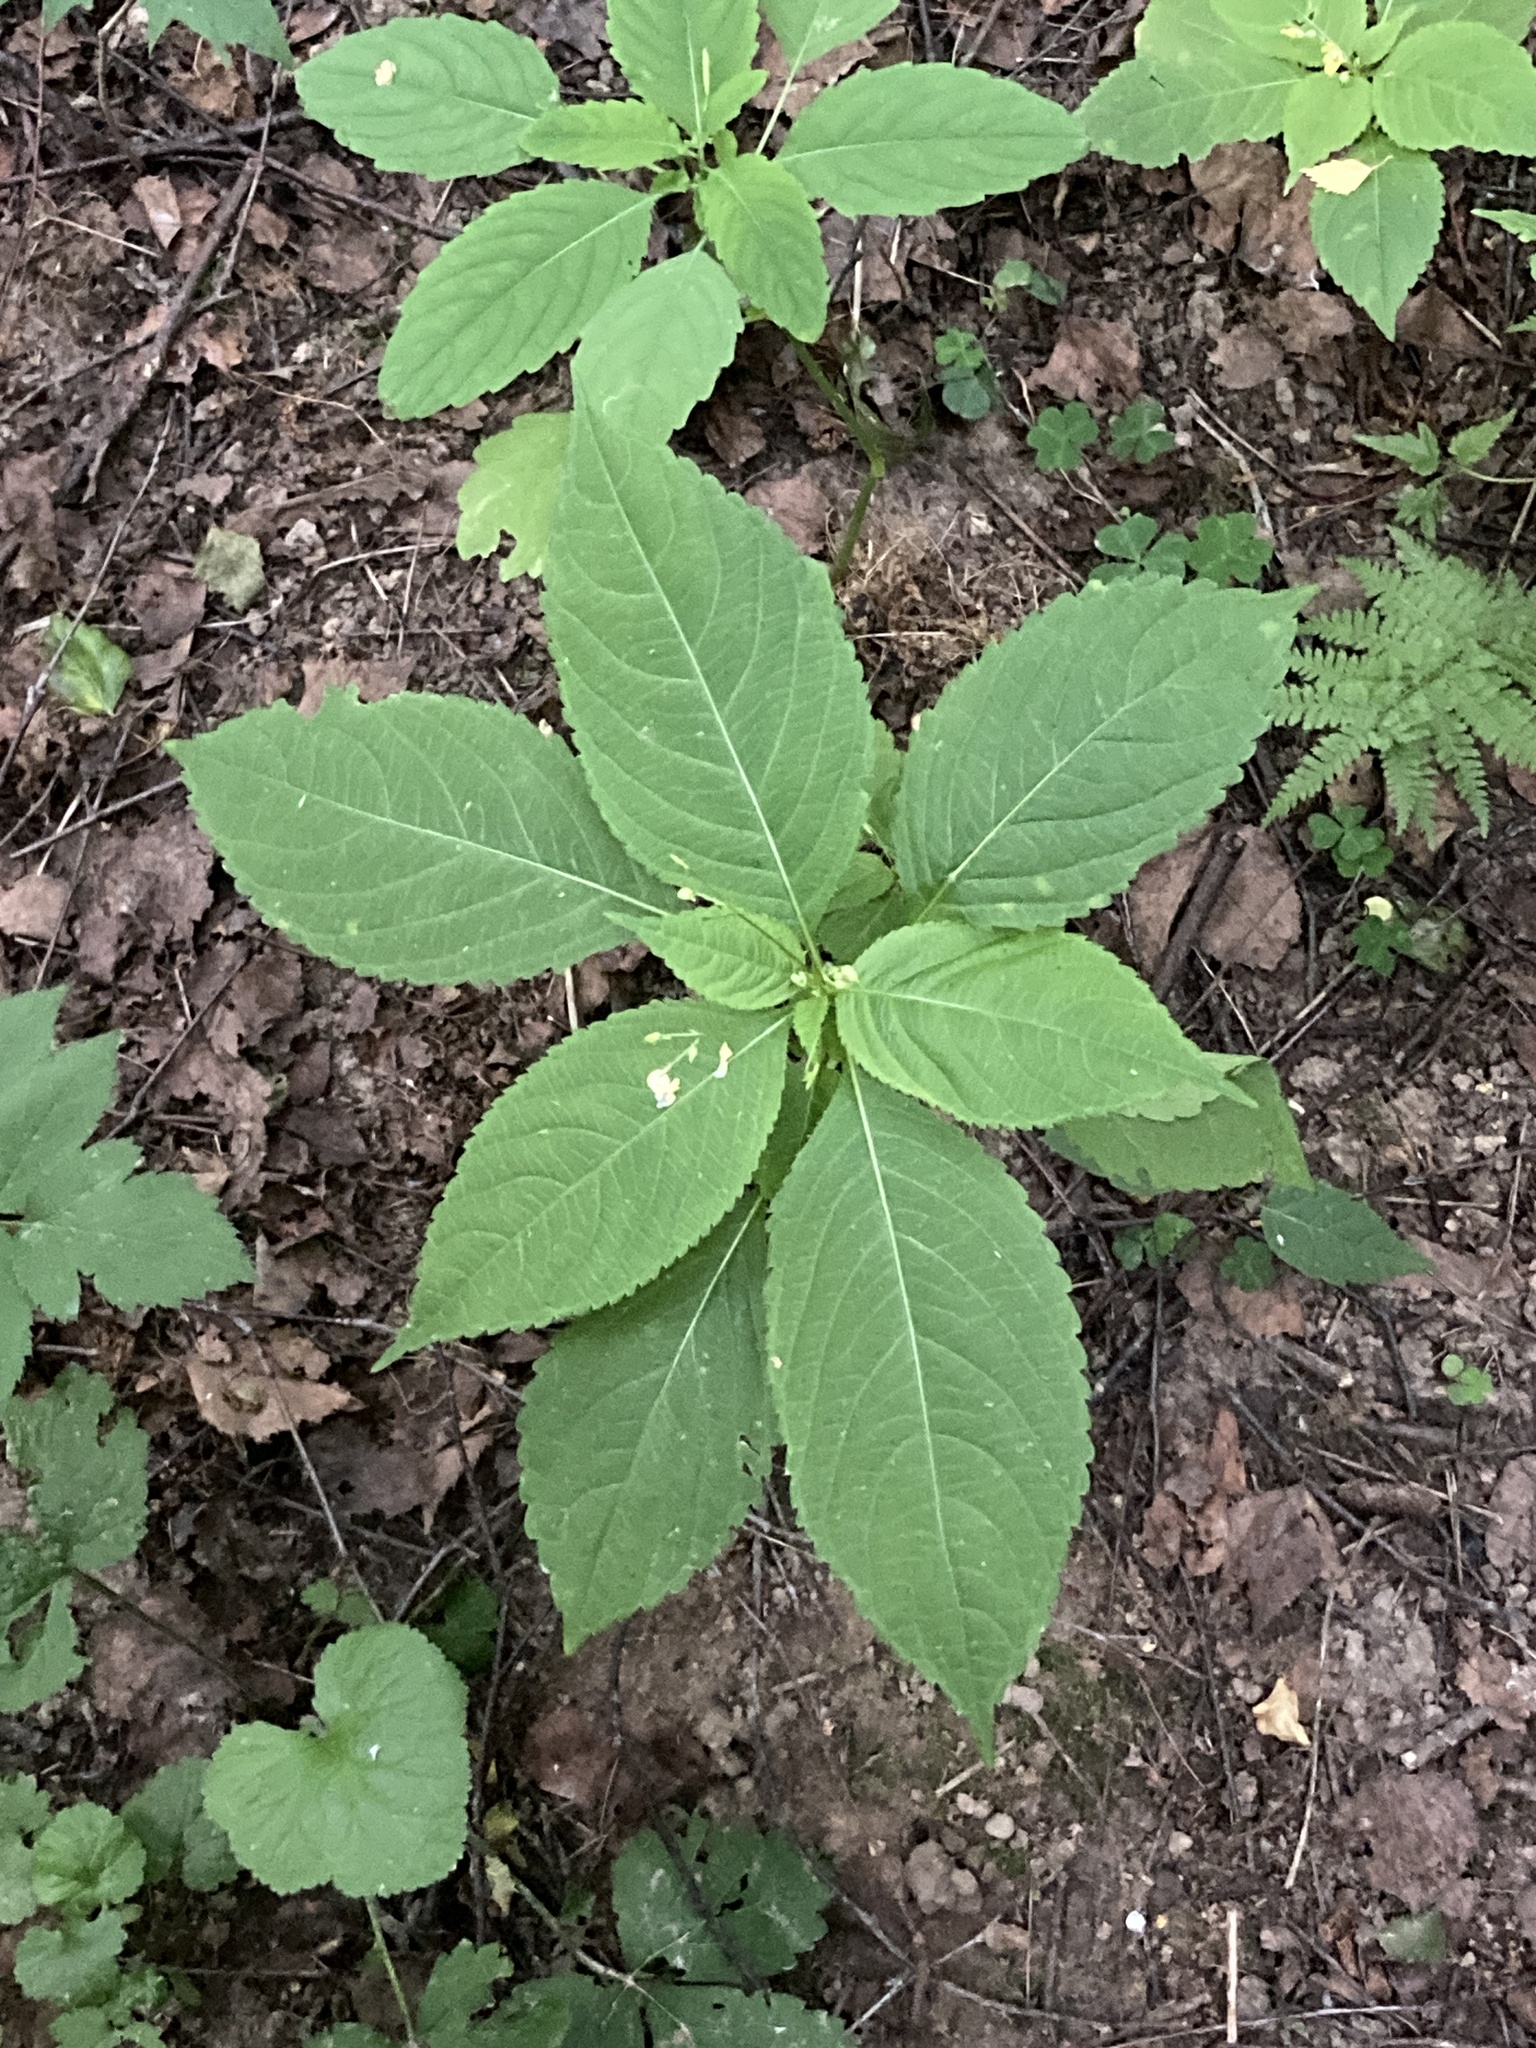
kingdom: Plantae
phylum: Tracheophyta
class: Magnoliopsida
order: Ericales
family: Balsaminaceae
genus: Impatiens
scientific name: Impatiens parviflora
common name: Small balsam
